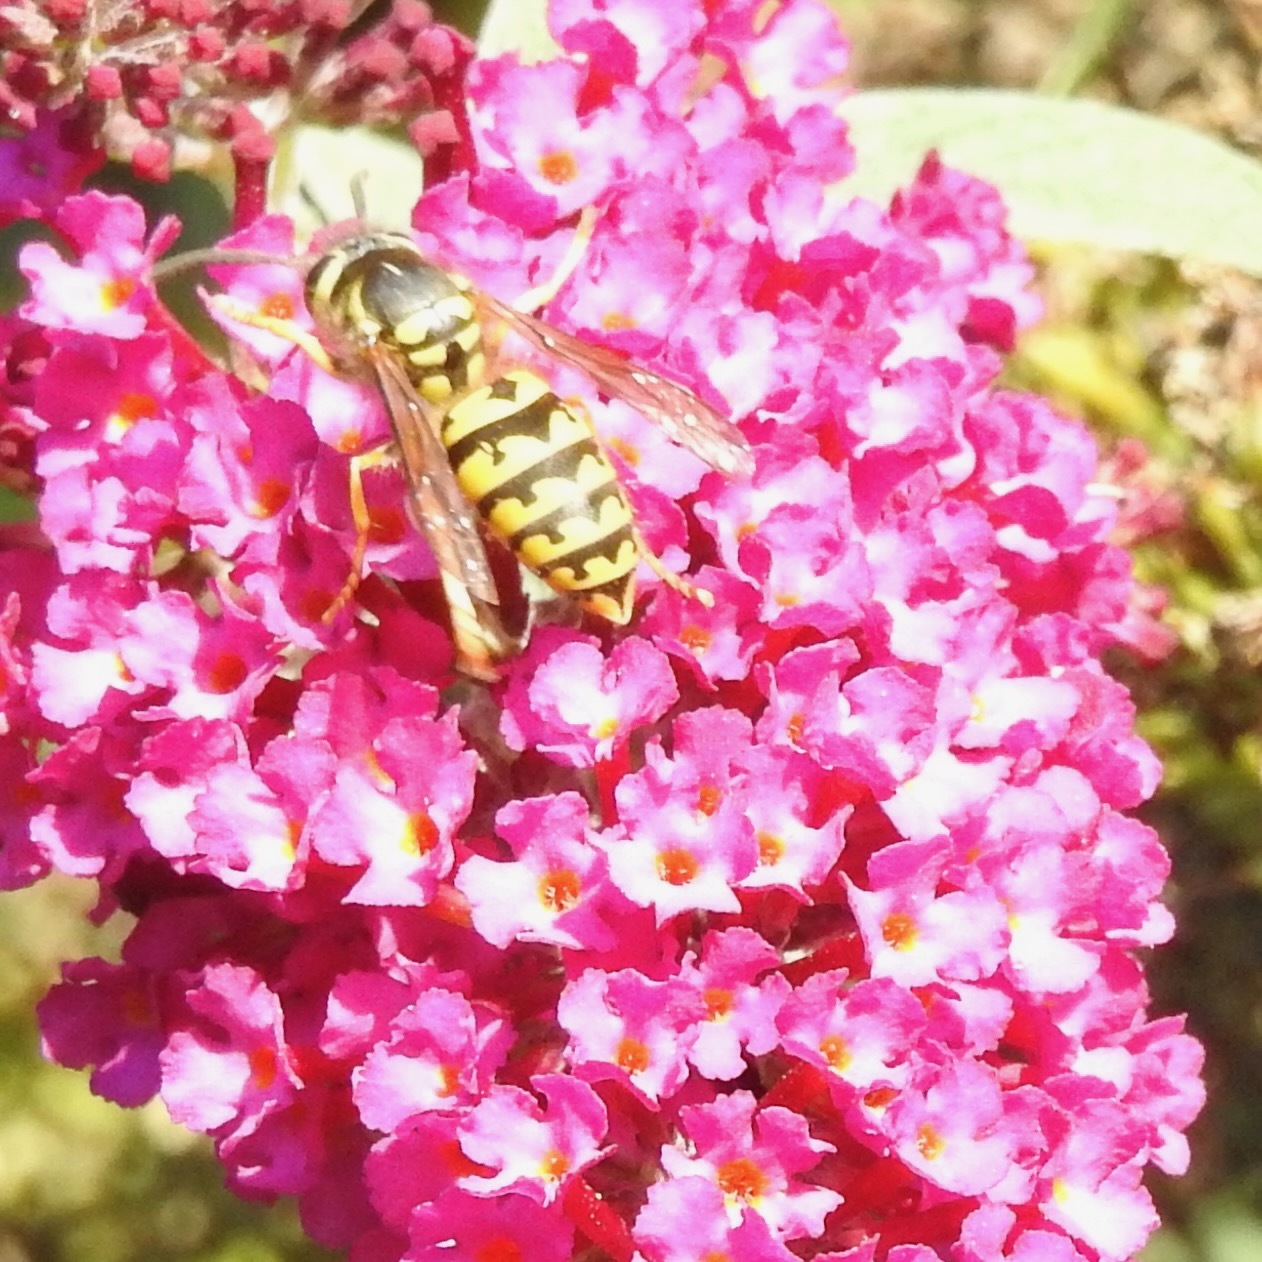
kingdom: Animalia
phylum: Arthropoda
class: Insecta
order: Hymenoptera
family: Vespidae
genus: Vespula
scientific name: Vespula pensylvanica
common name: Western yellowjacket
